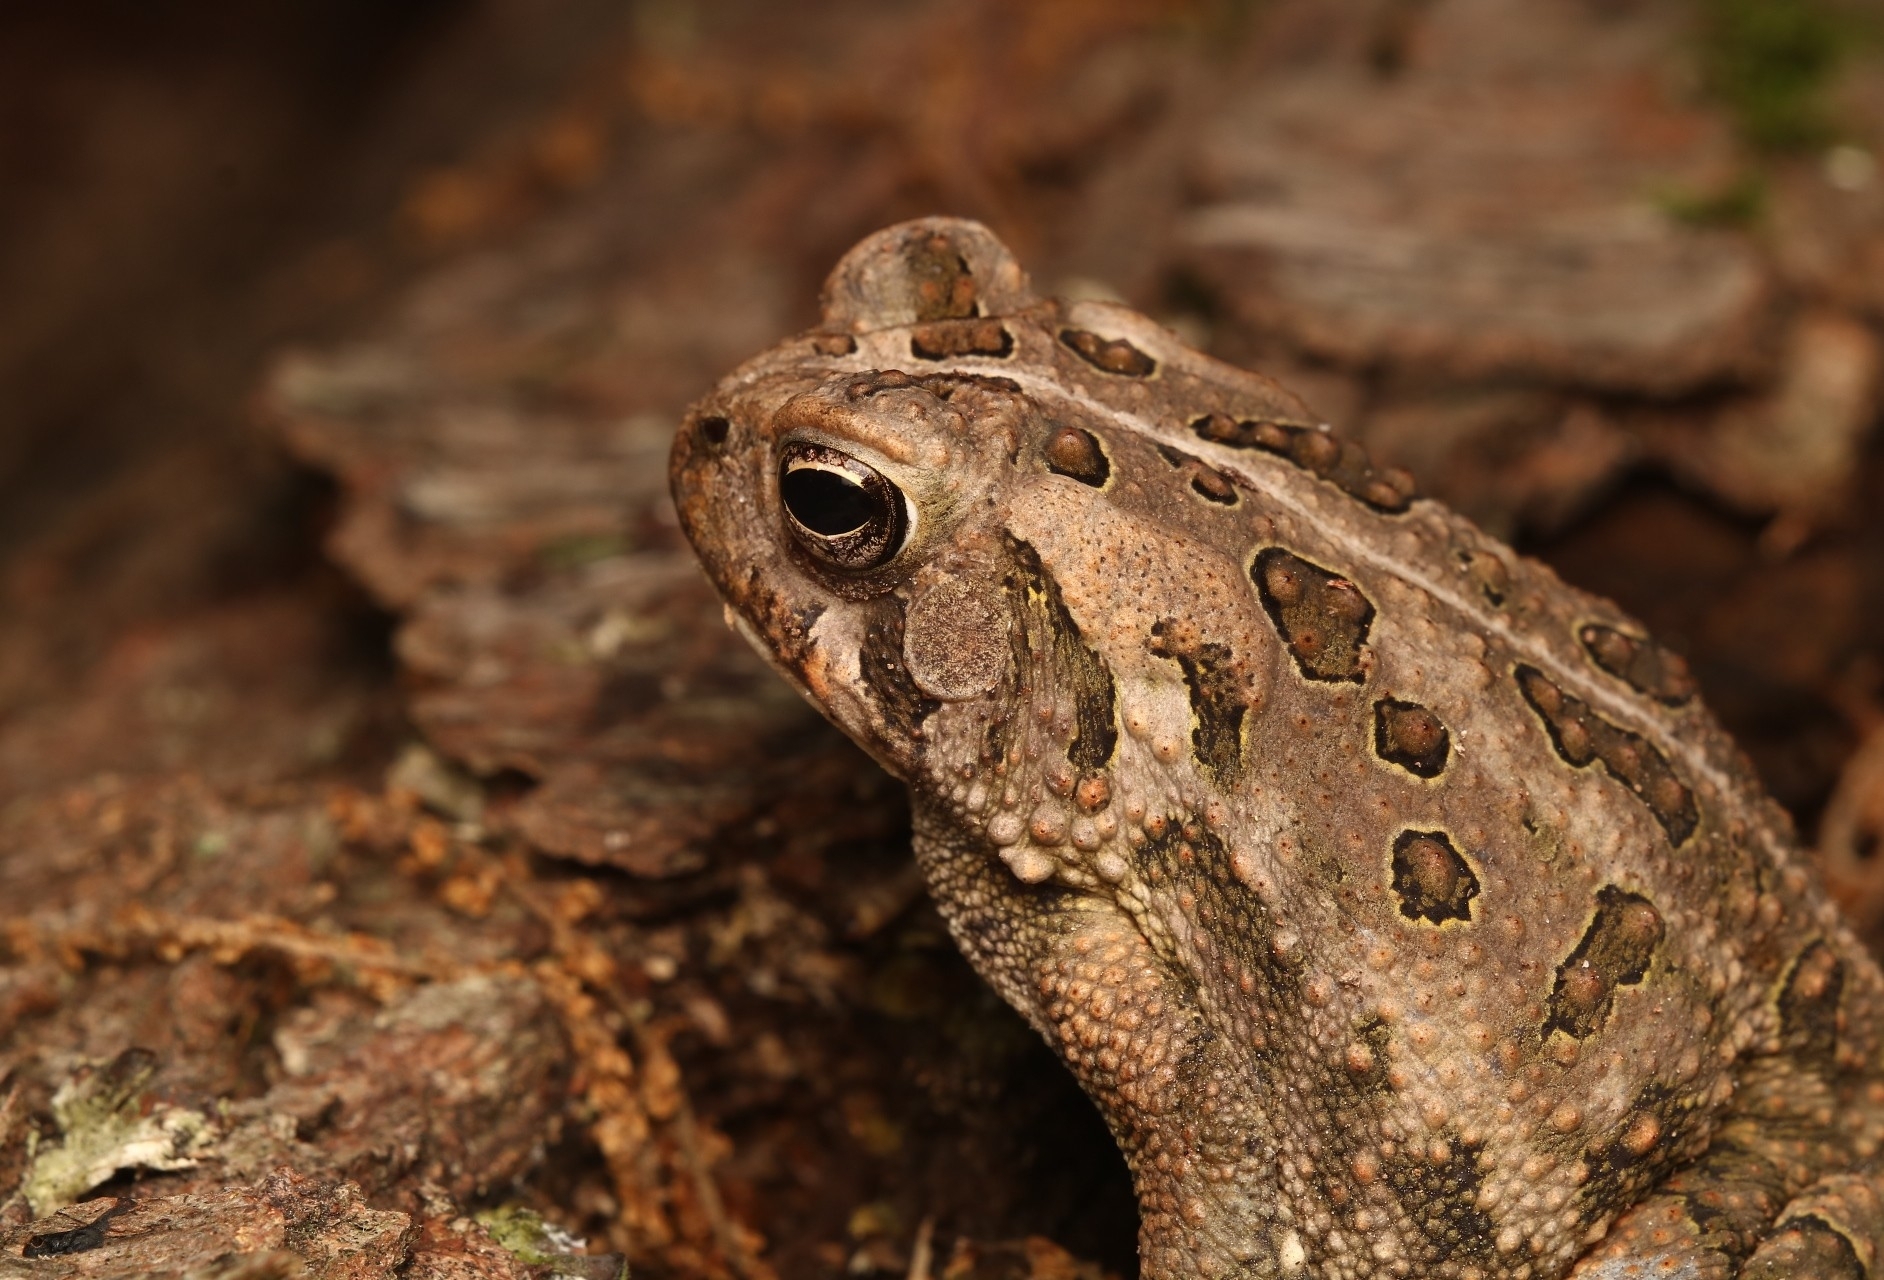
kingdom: Animalia
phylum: Chordata
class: Amphibia
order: Anura
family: Bufonidae
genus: Anaxyrus
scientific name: Anaxyrus fowleri
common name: Fowler's toad
